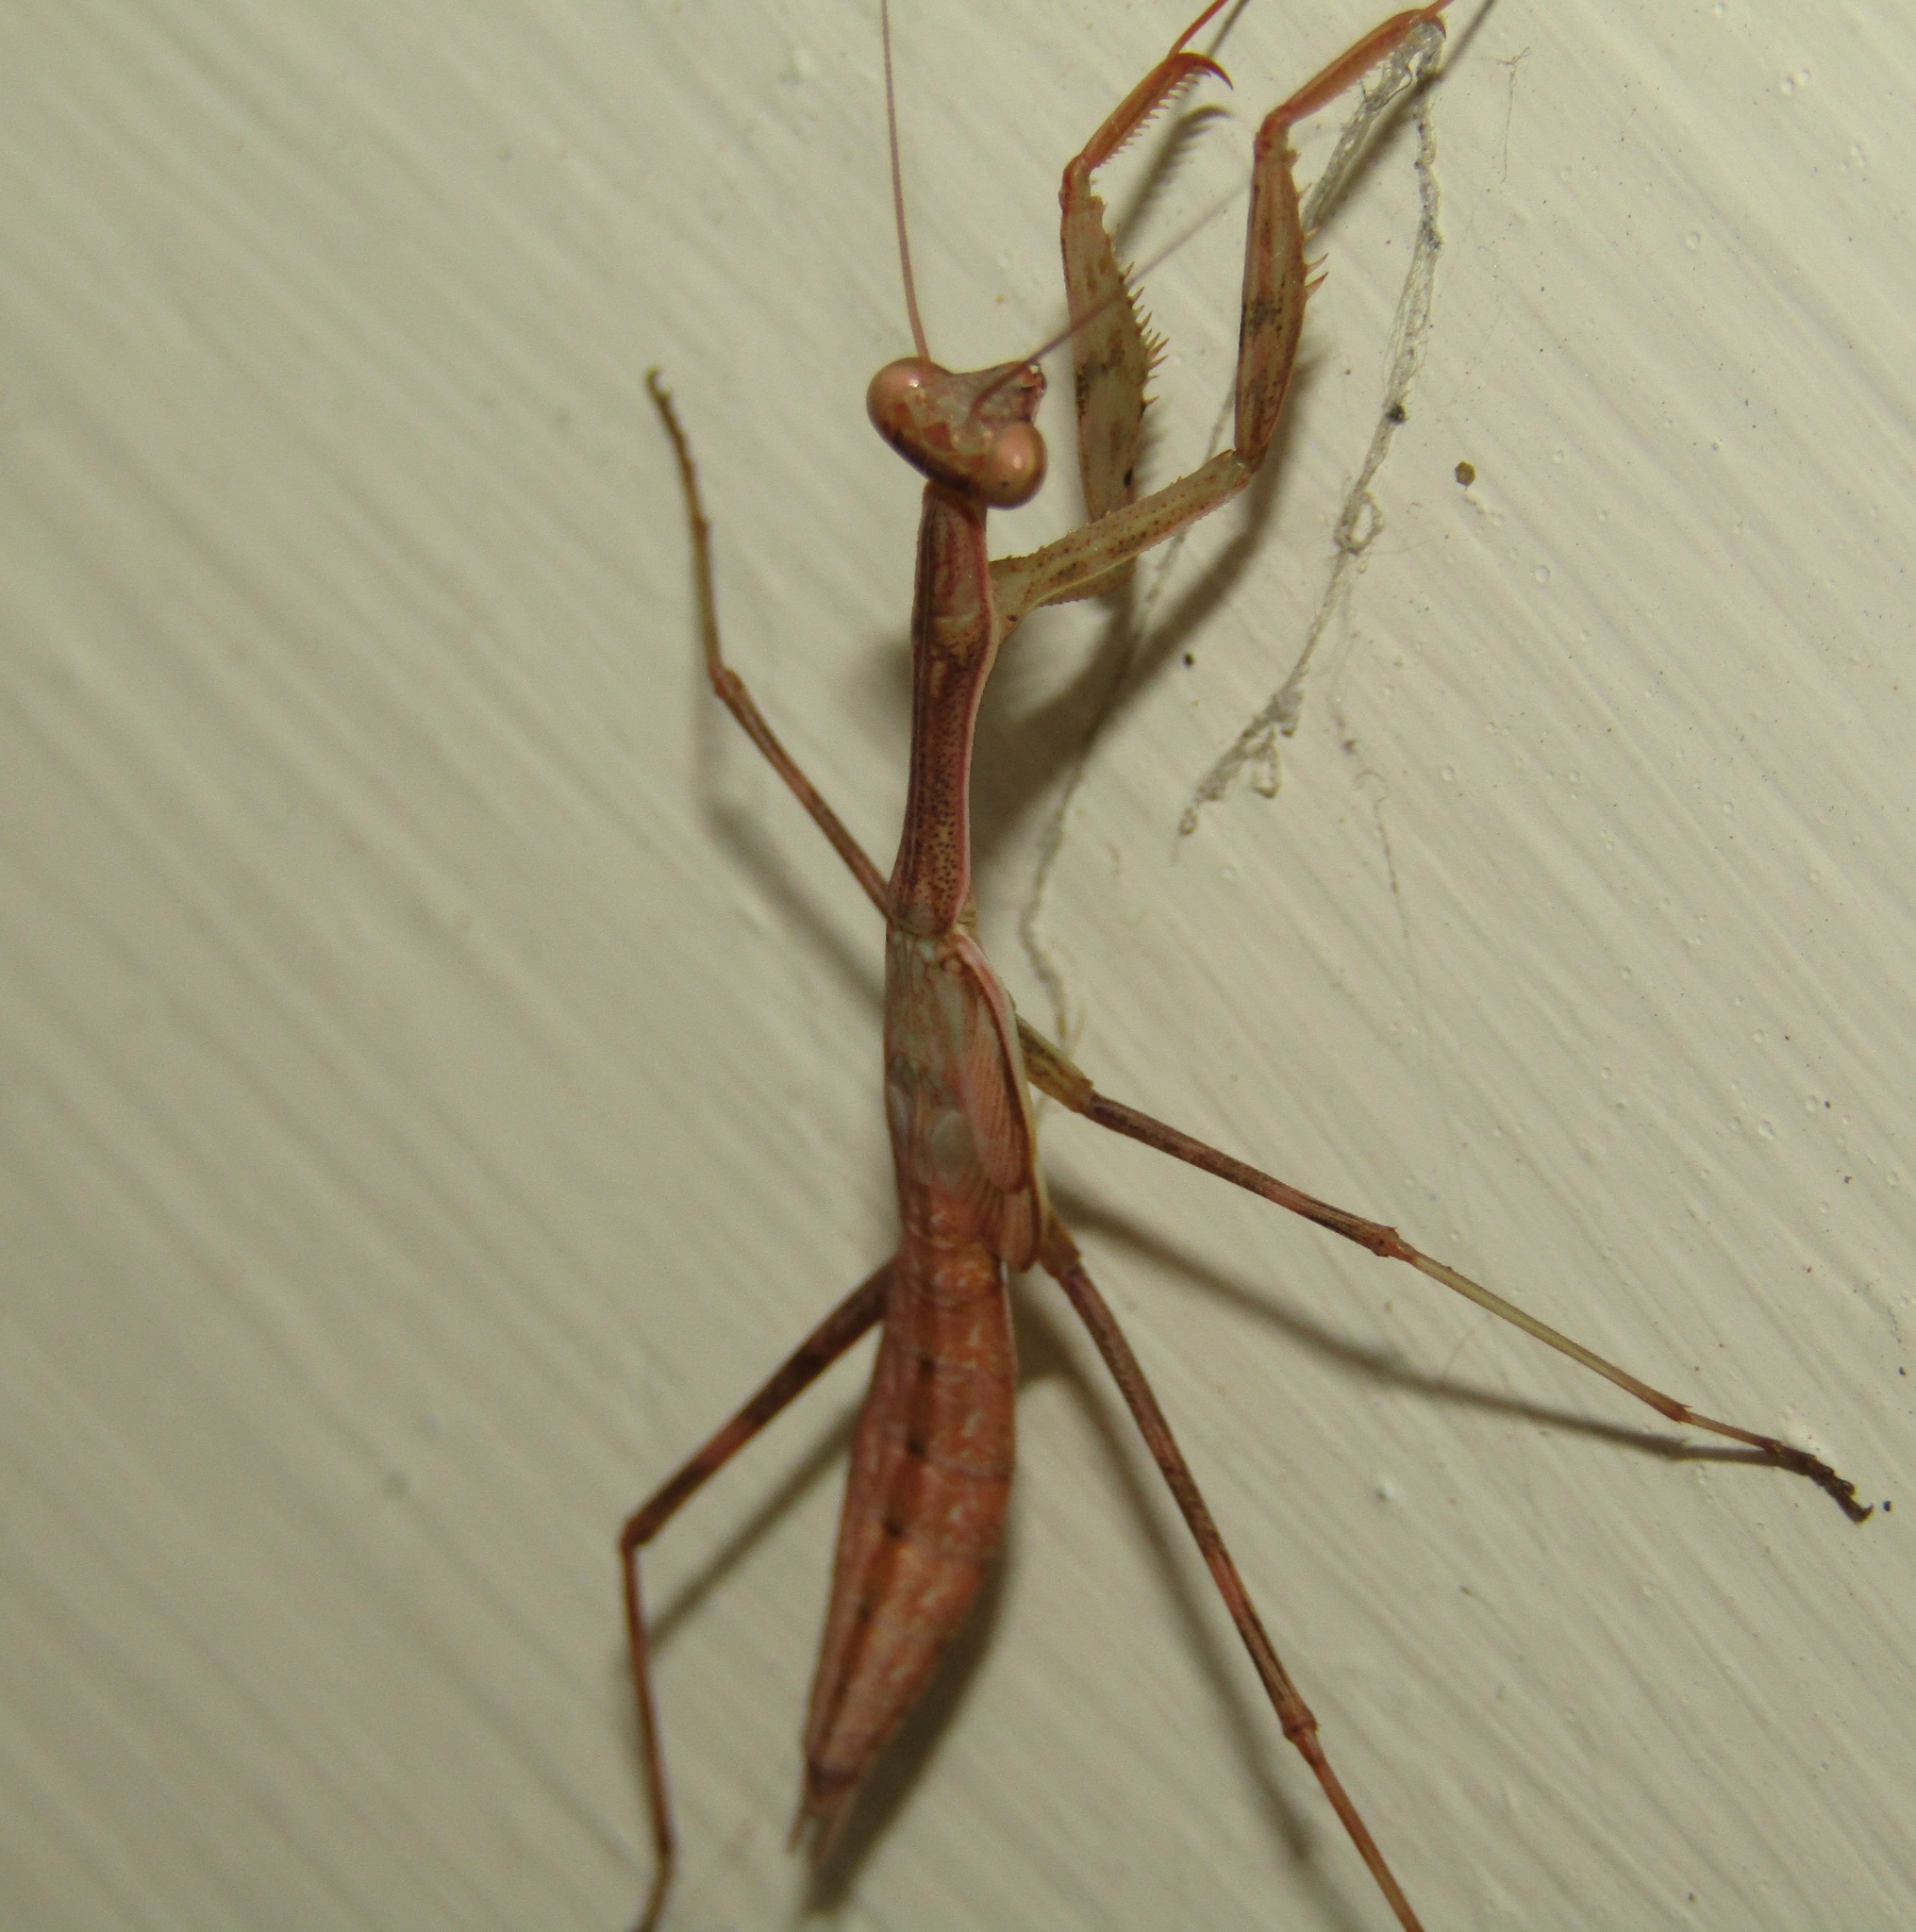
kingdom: Animalia
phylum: Arthropoda
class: Insecta
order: Mantodea
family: Miomantidae
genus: Miomantis
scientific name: Miomantis caffra
